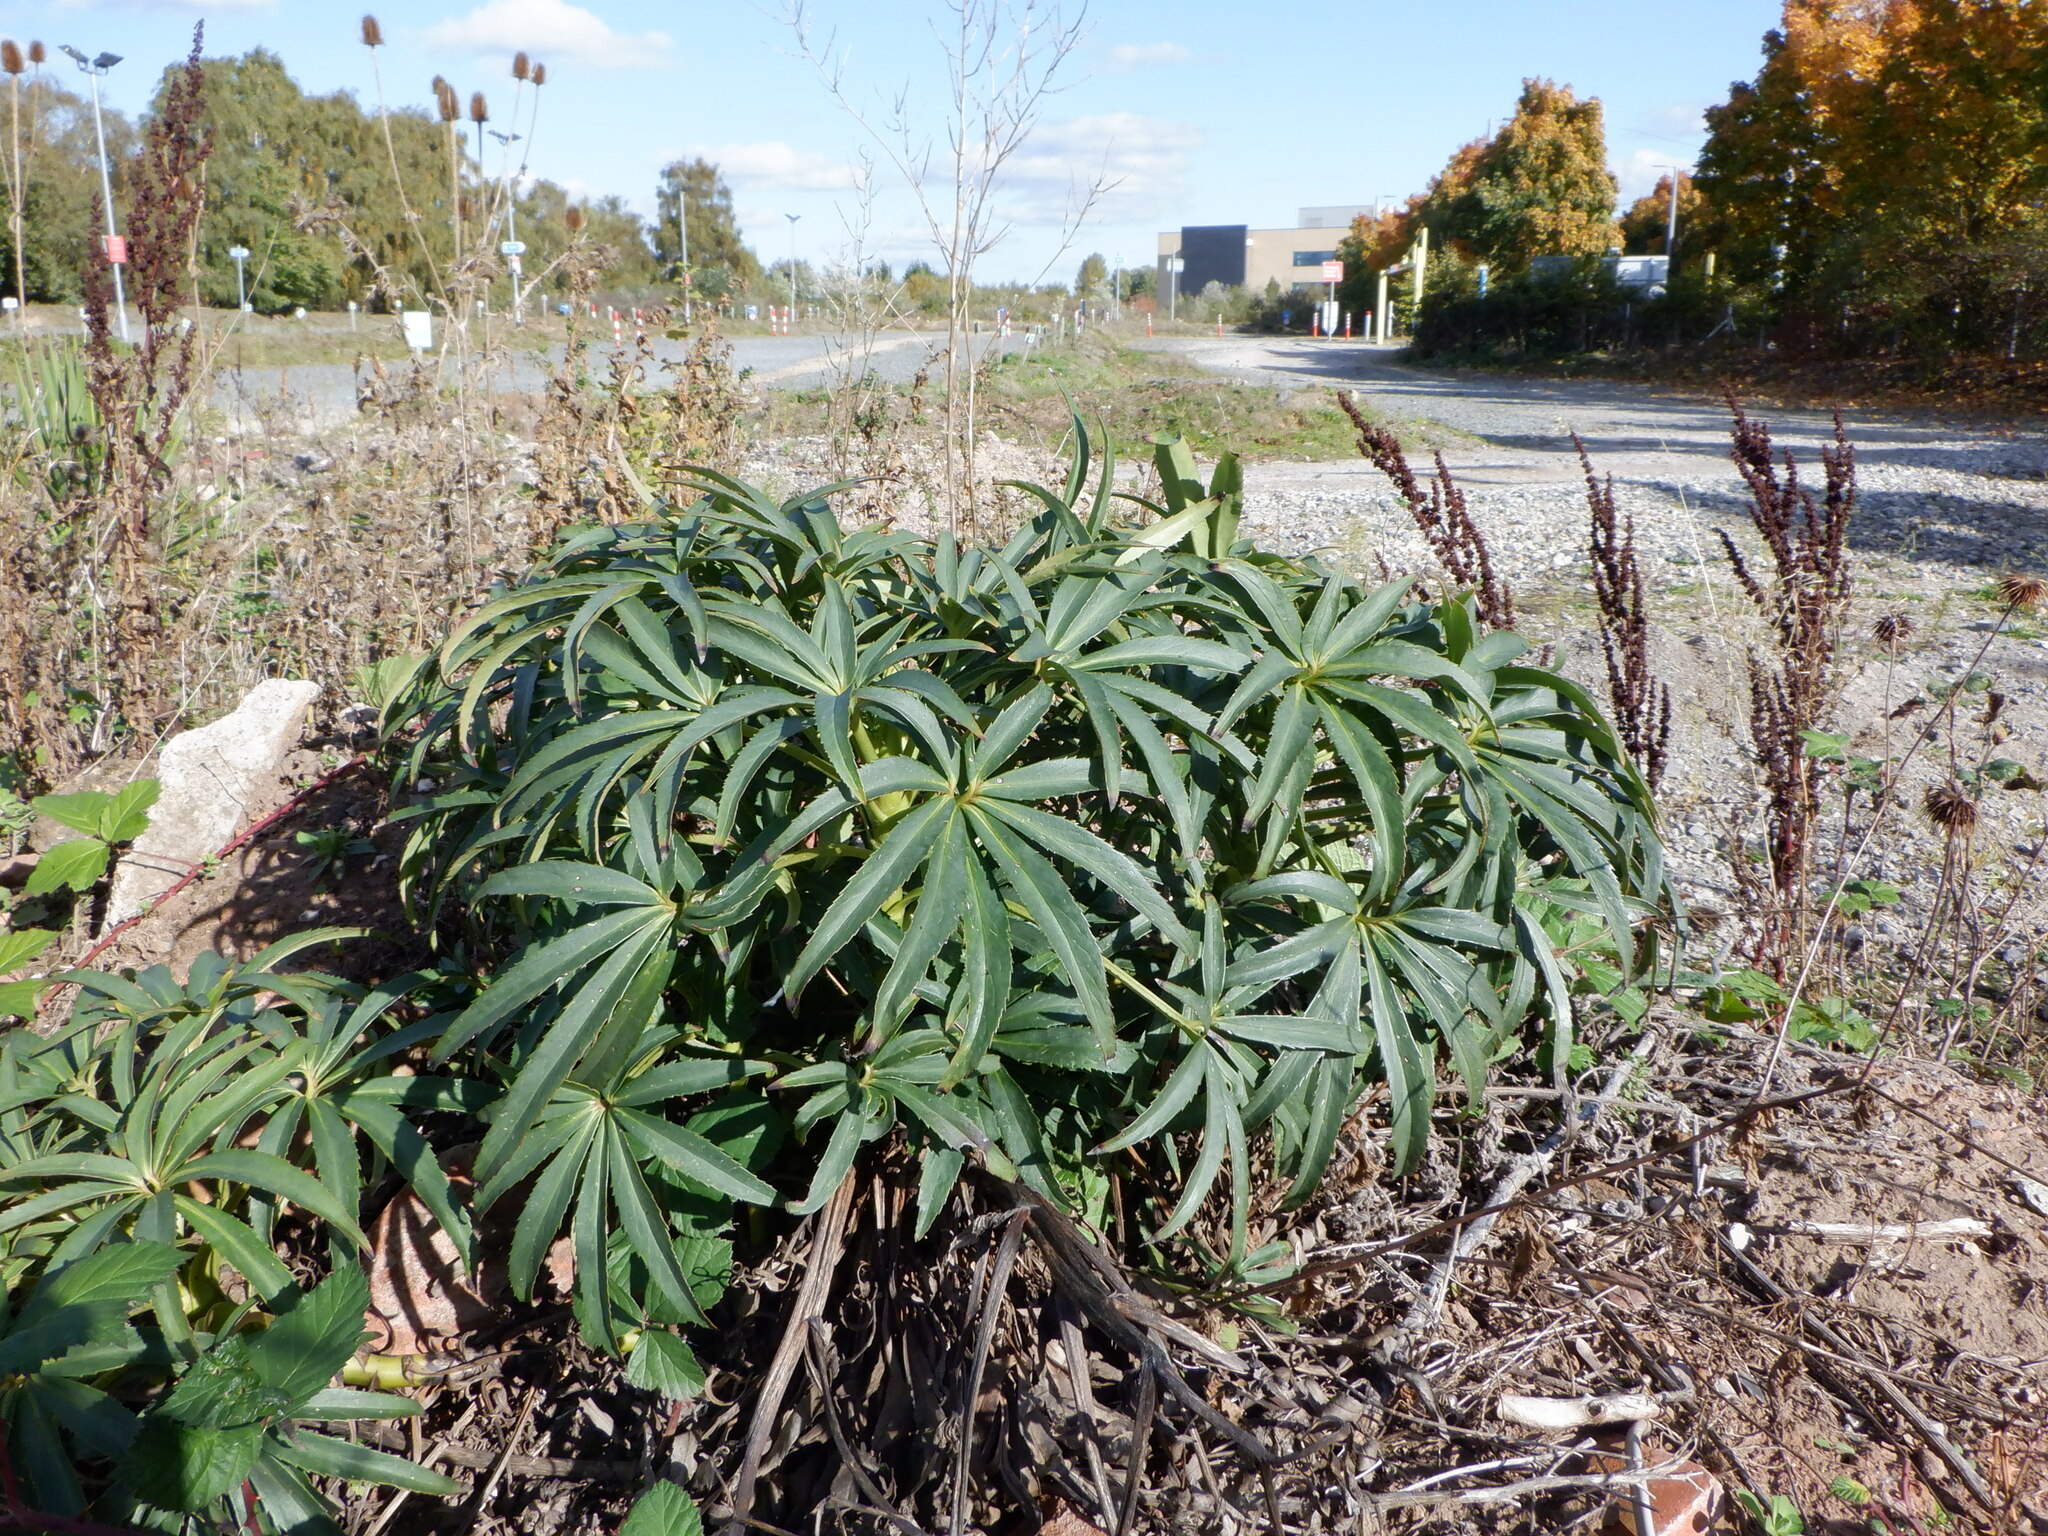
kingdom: Plantae
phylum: Tracheophyta
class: Magnoliopsida
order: Ranunculales
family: Ranunculaceae
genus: Helleborus
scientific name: Helleborus foetidus
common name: Stinking hellebore
